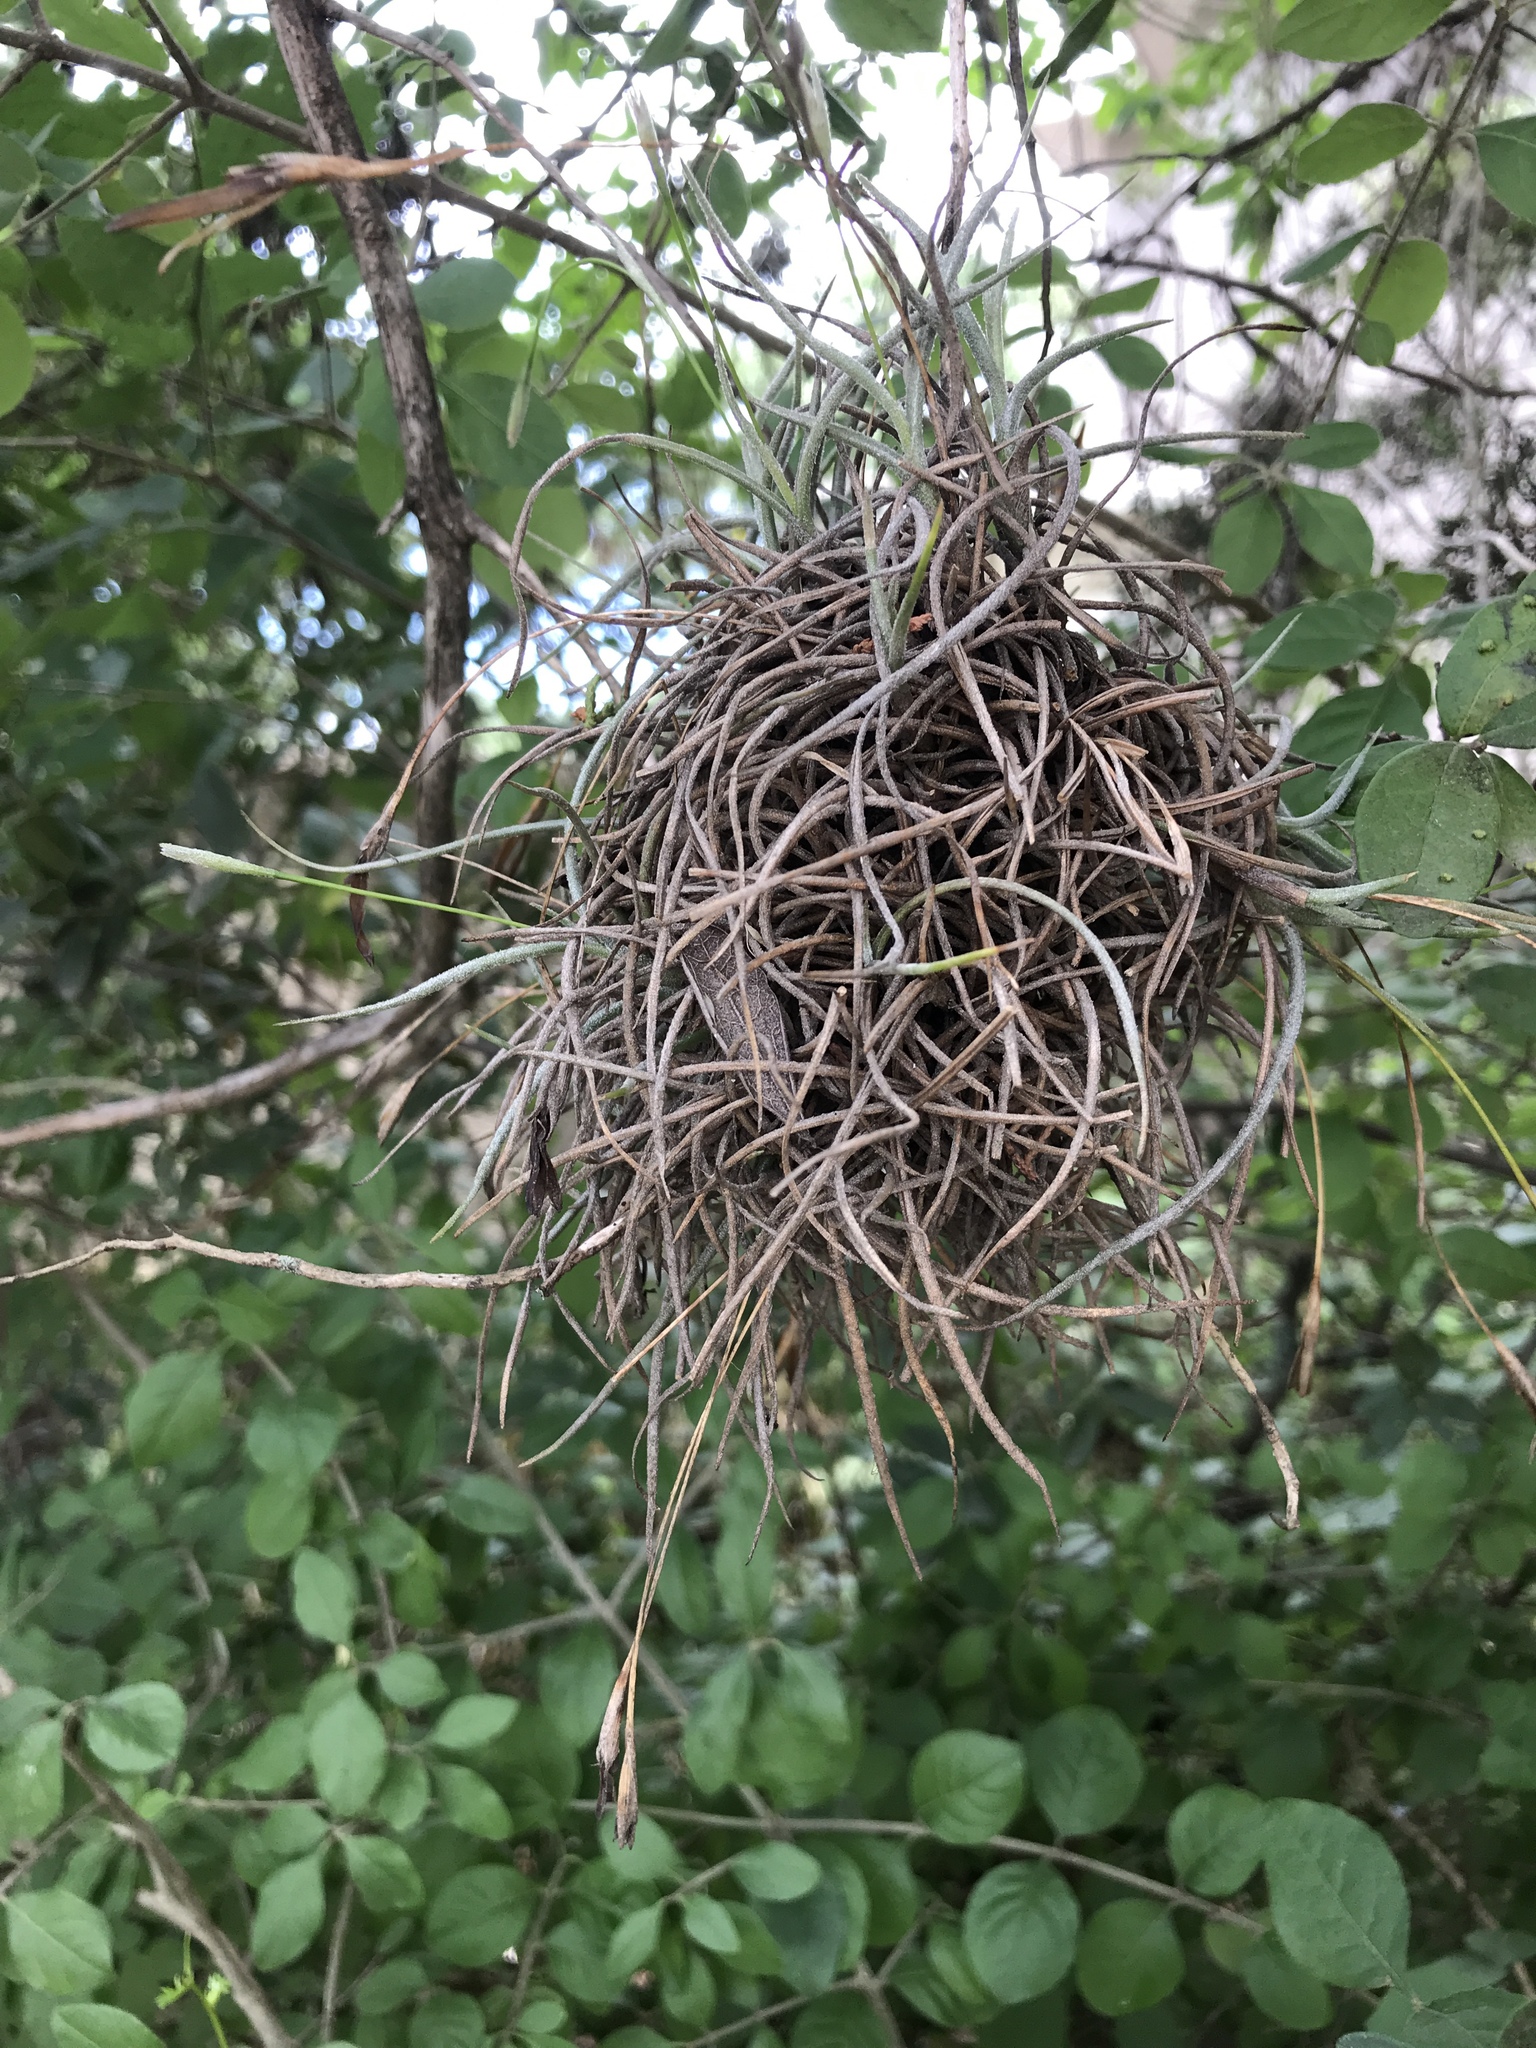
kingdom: Plantae
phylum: Tracheophyta
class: Liliopsida
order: Poales
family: Bromeliaceae
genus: Tillandsia
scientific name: Tillandsia recurvata
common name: Small ballmoss
